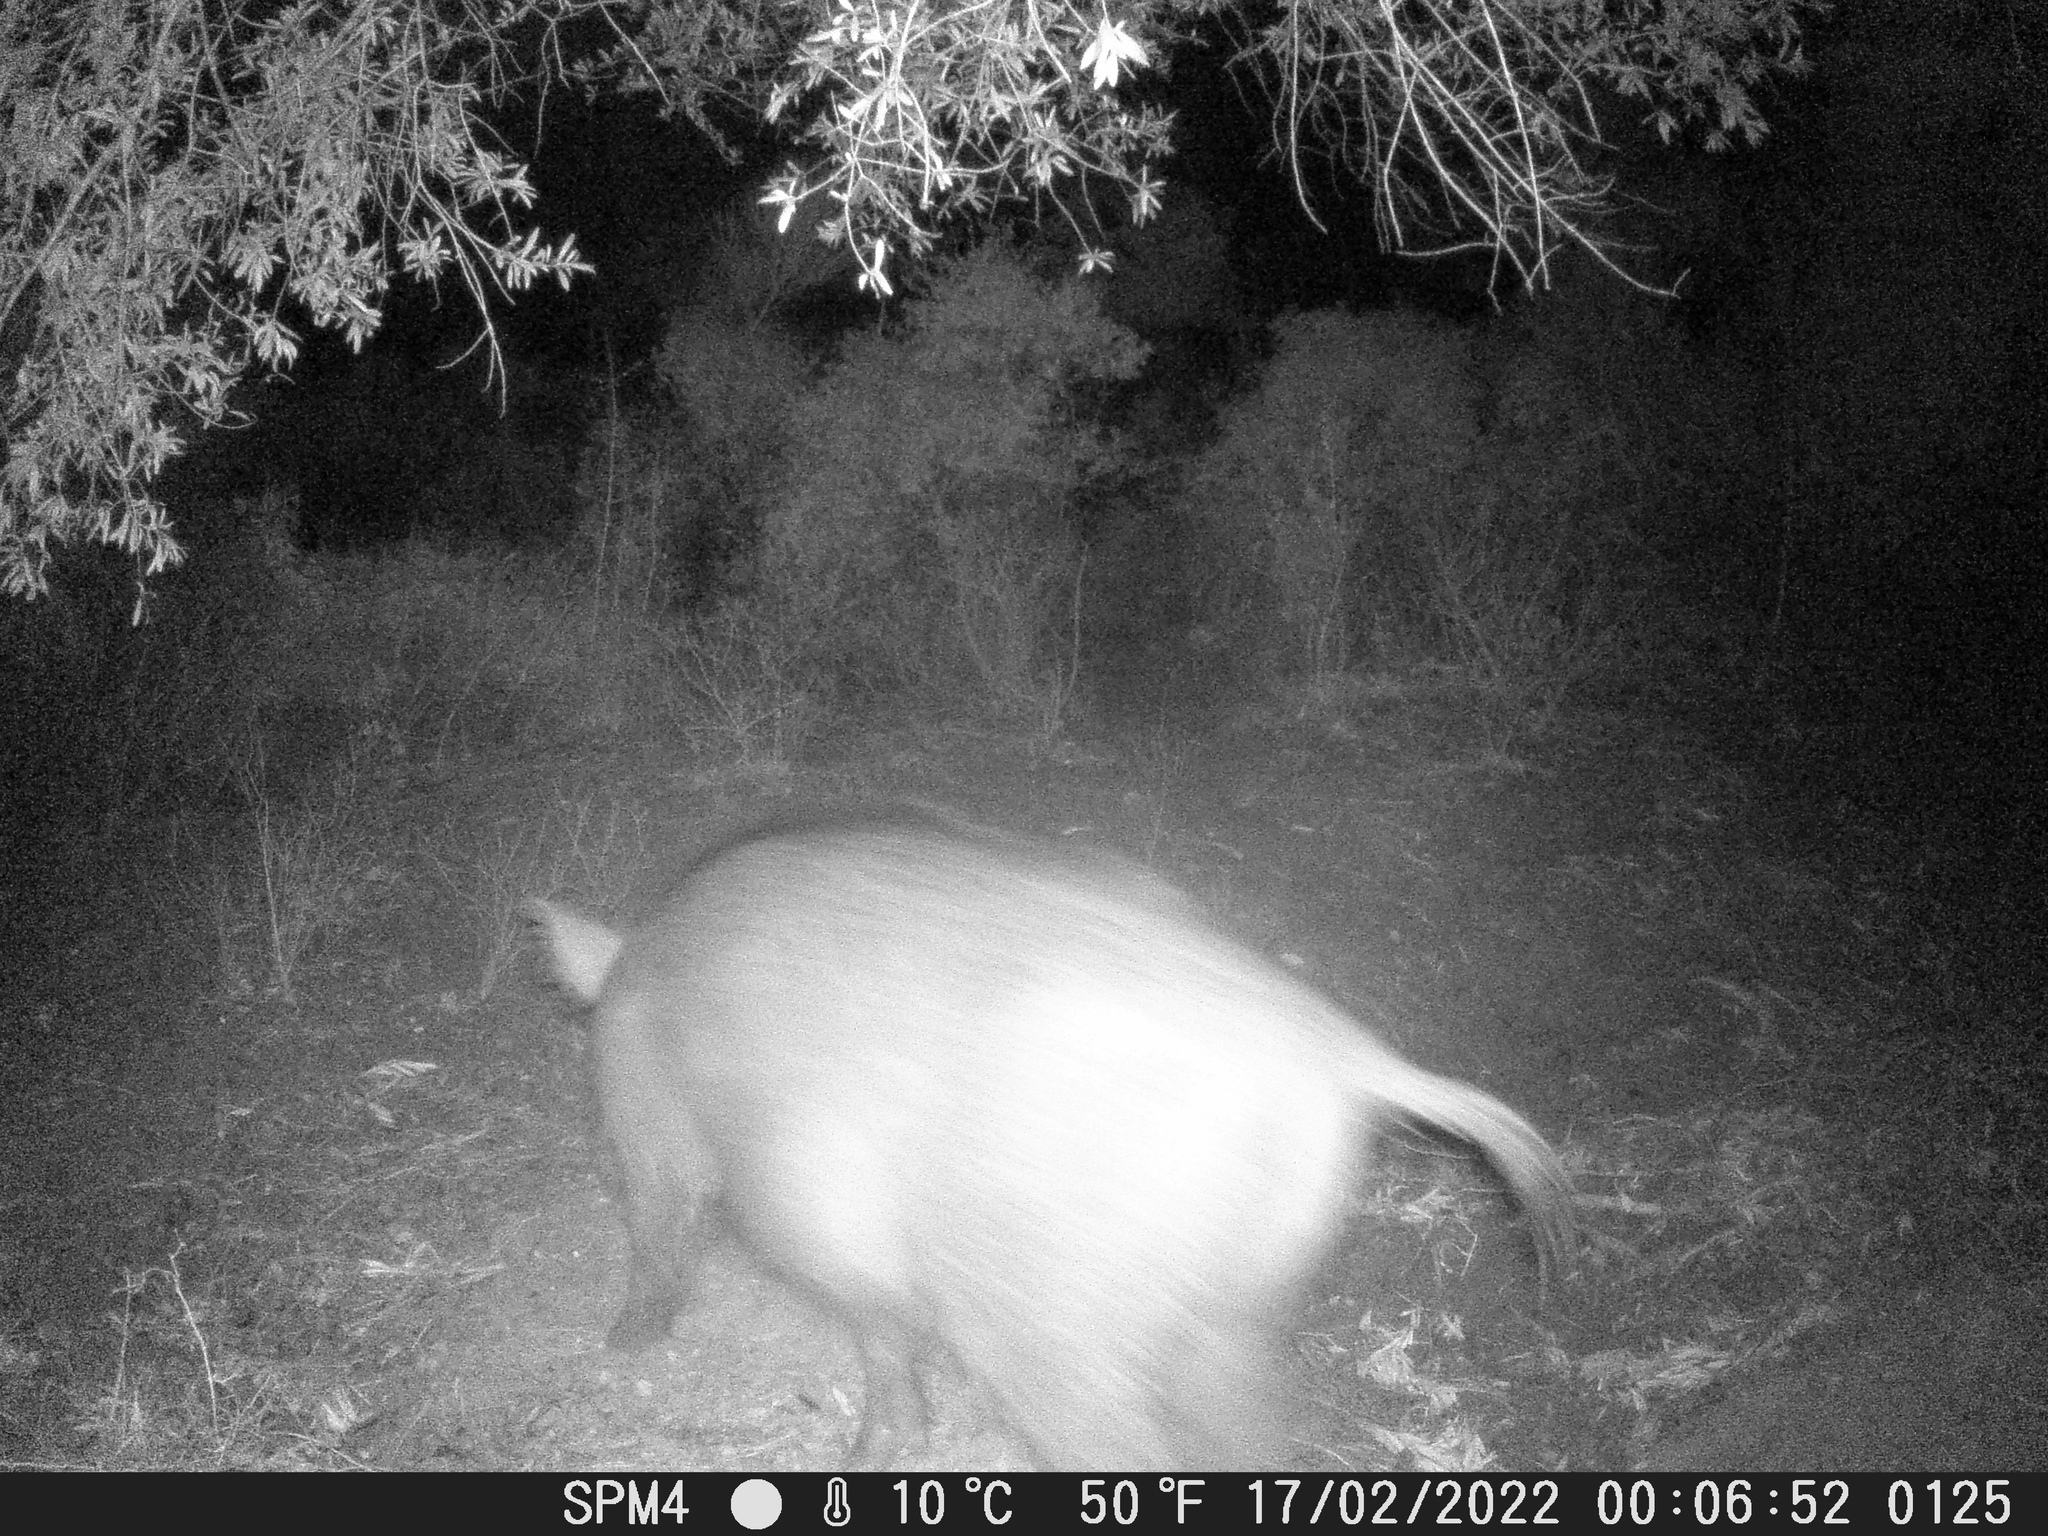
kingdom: Animalia
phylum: Chordata
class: Mammalia
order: Artiodactyla
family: Suidae
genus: Sus
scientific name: Sus scrofa
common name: Wild boar
